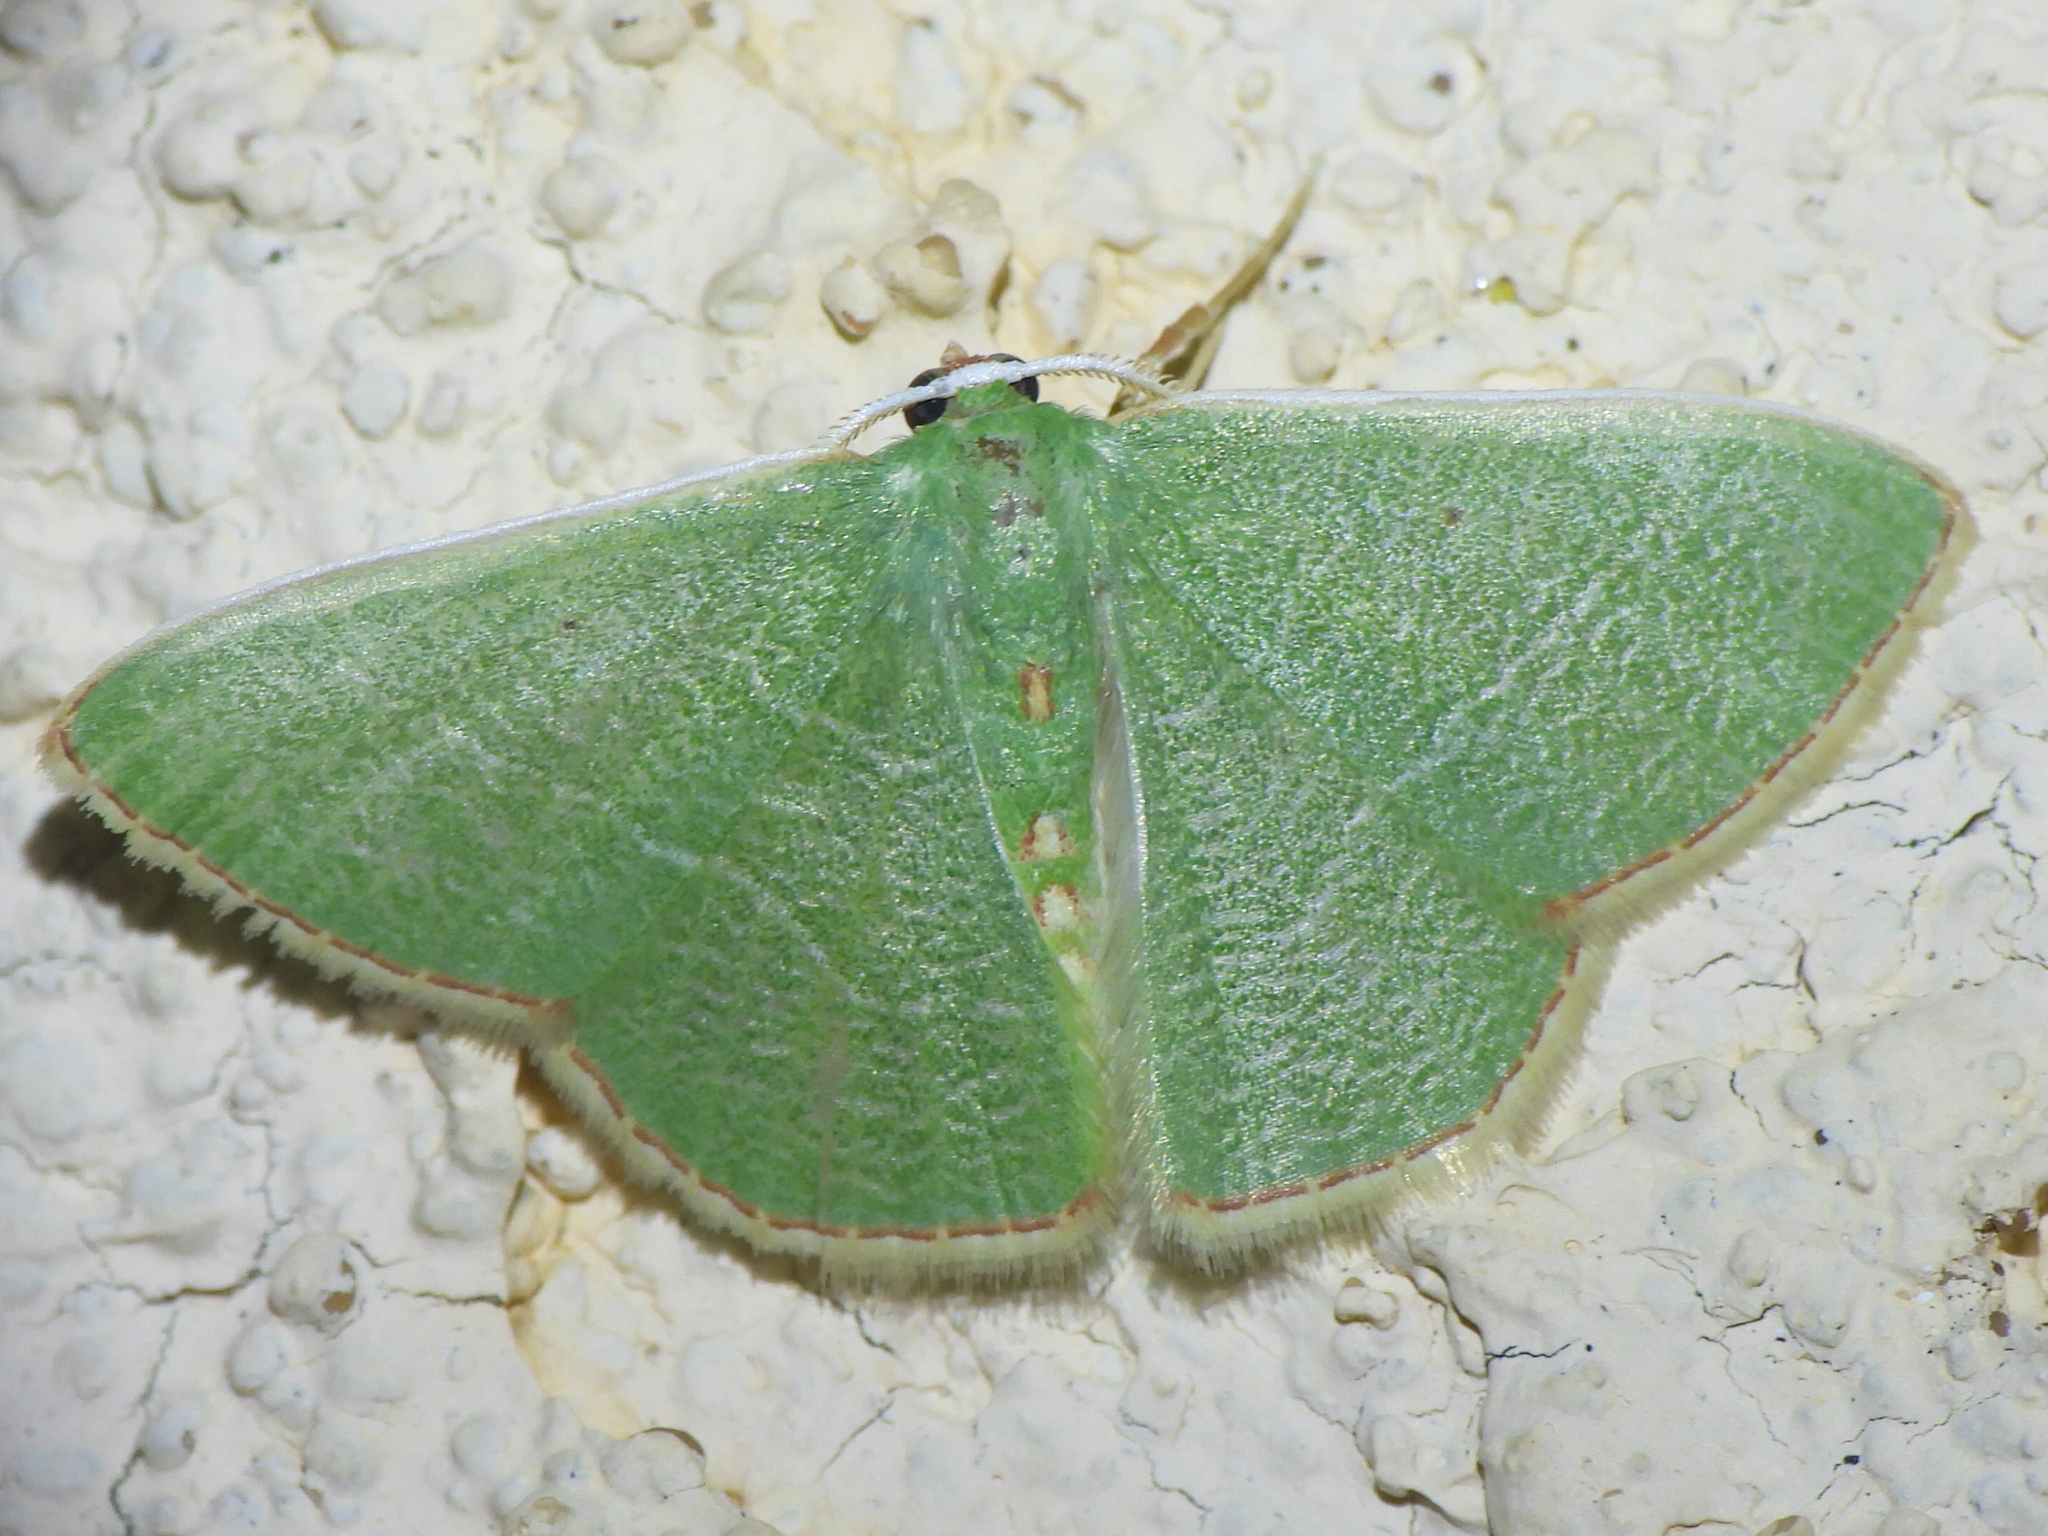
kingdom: Animalia
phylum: Arthropoda
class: Insecta
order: Lepidoptera
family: Geometridae
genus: Nemoria
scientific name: Nemoria bifilata
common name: White-barred emerald moth
